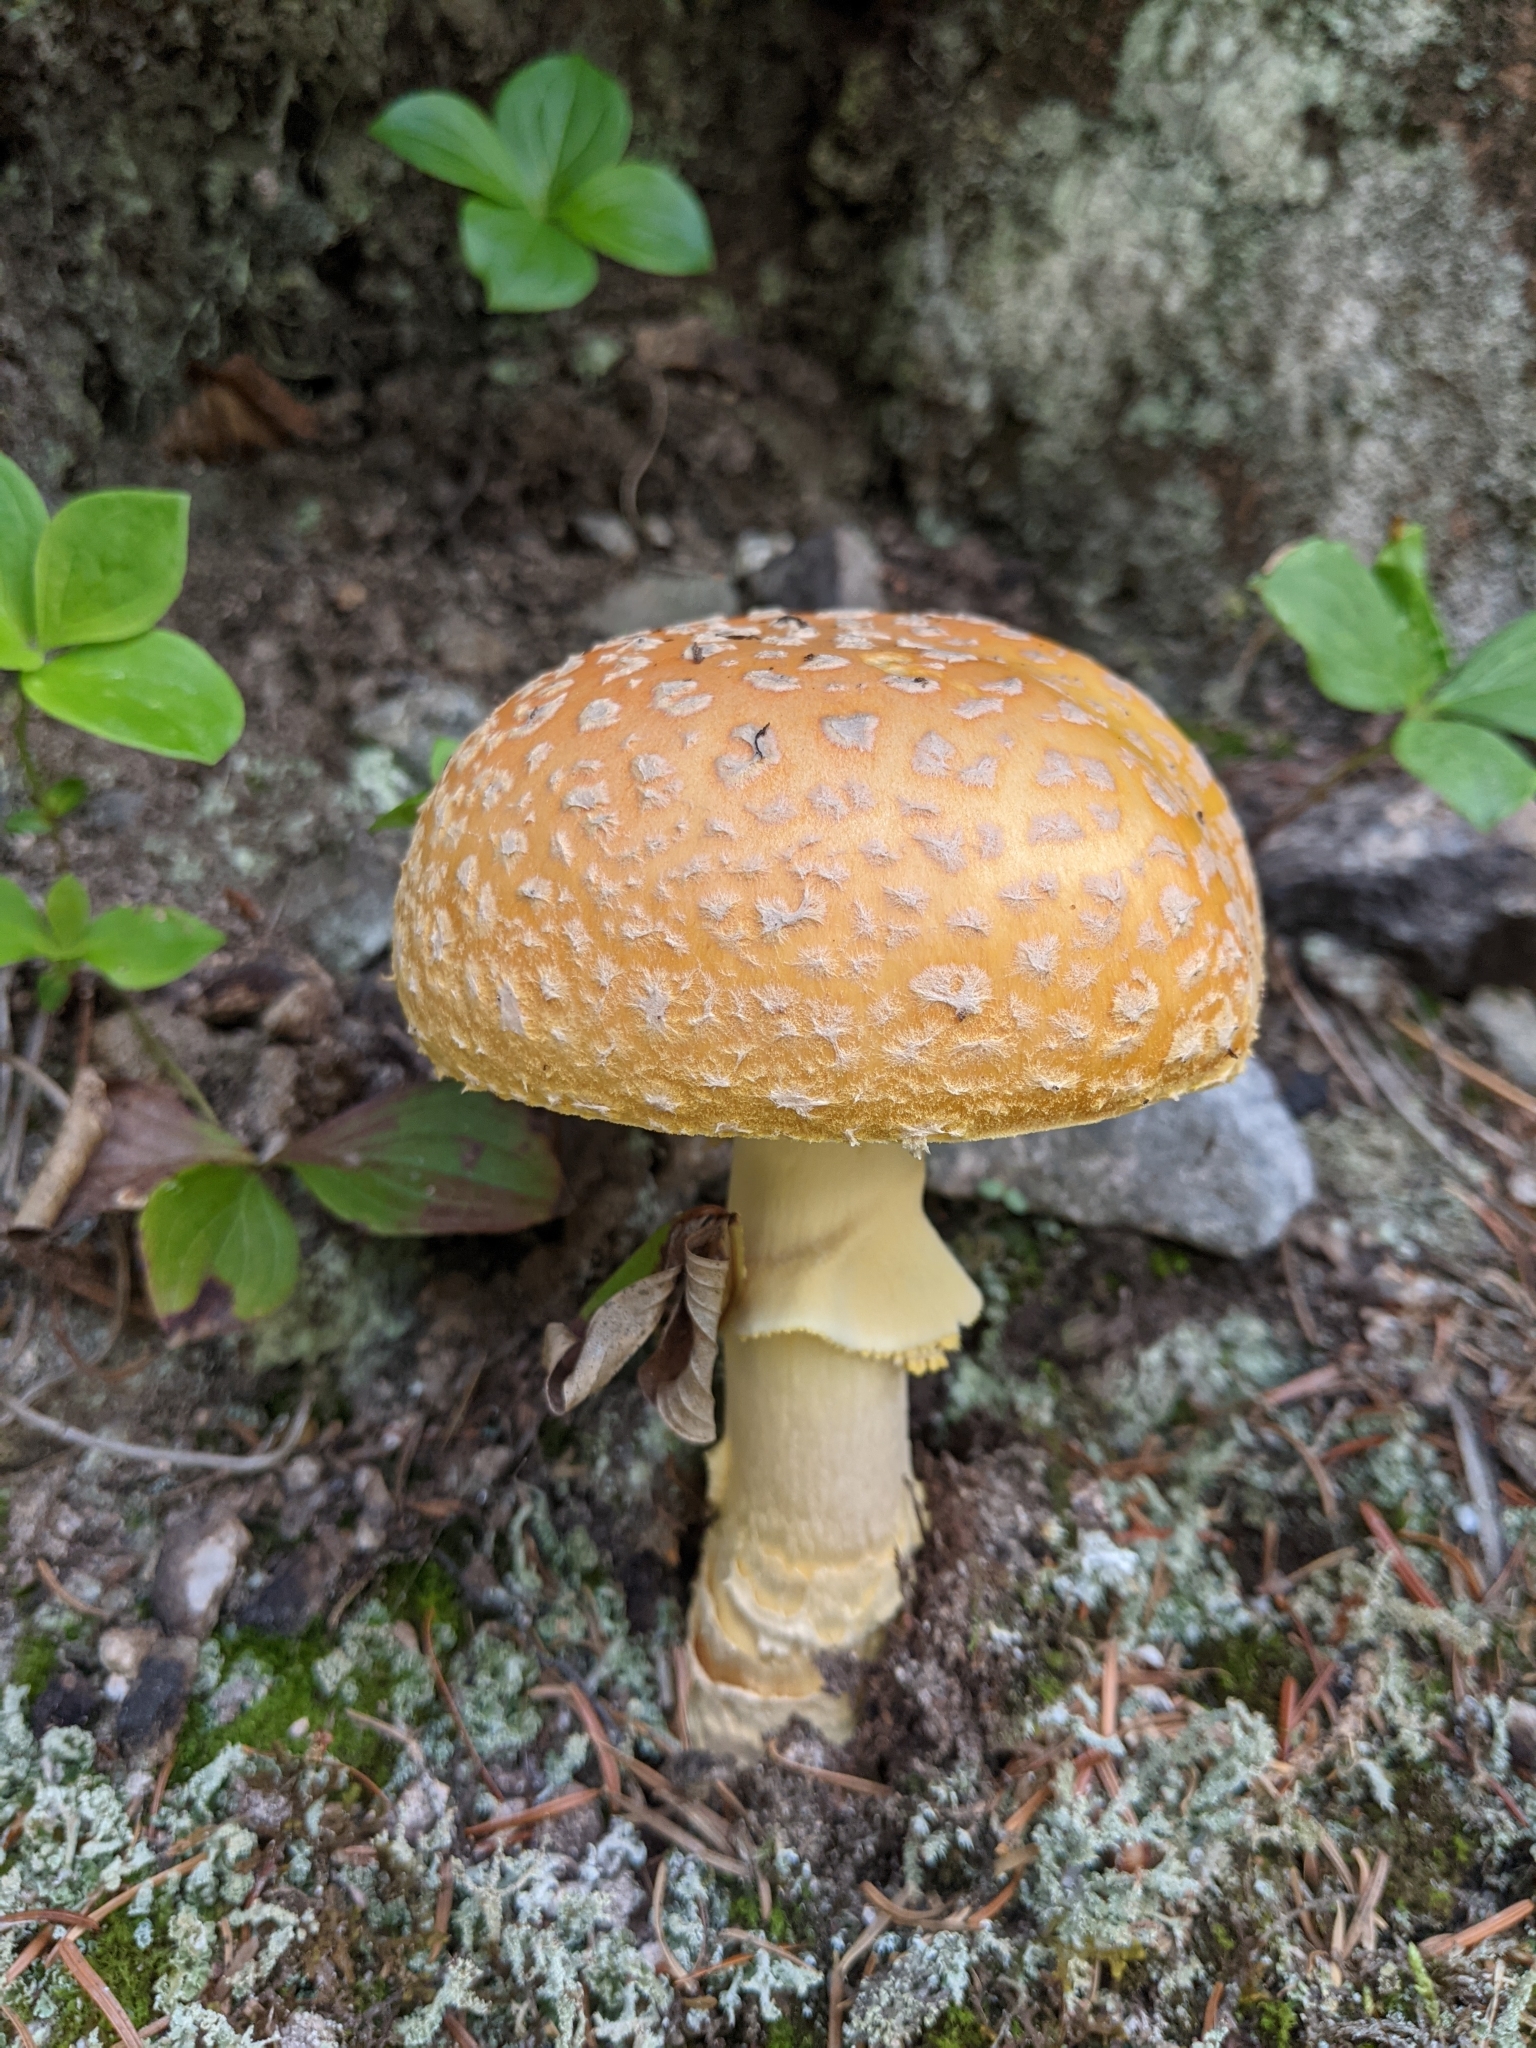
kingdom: Fungi
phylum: Basidiomycota
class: Agaricomycetes
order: Agaricales
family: Amanitaceae
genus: Amanita
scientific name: Amanita muscaria
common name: Fly agaric
